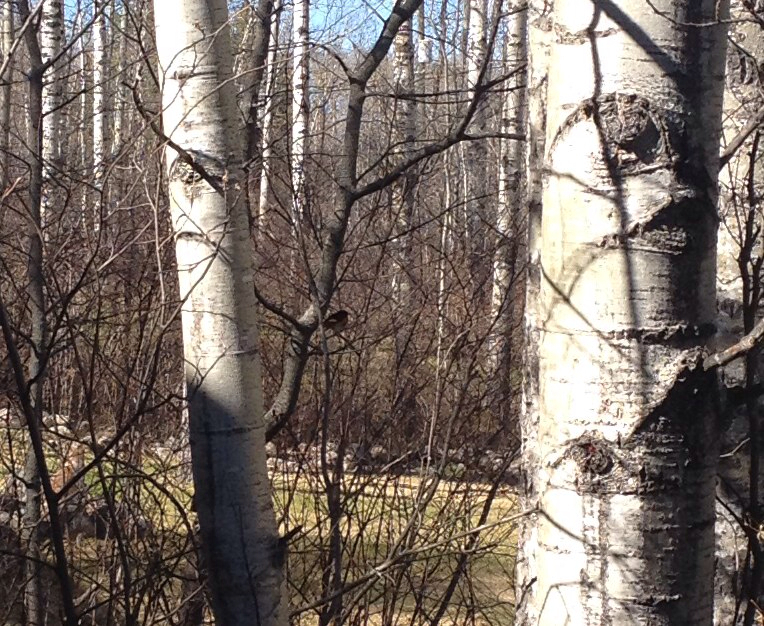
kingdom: Animalia
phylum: Chordata
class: Aves
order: Passeriformes
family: Parulidae
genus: Setophaga
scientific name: Setophaga ruticilla
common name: American redstart
